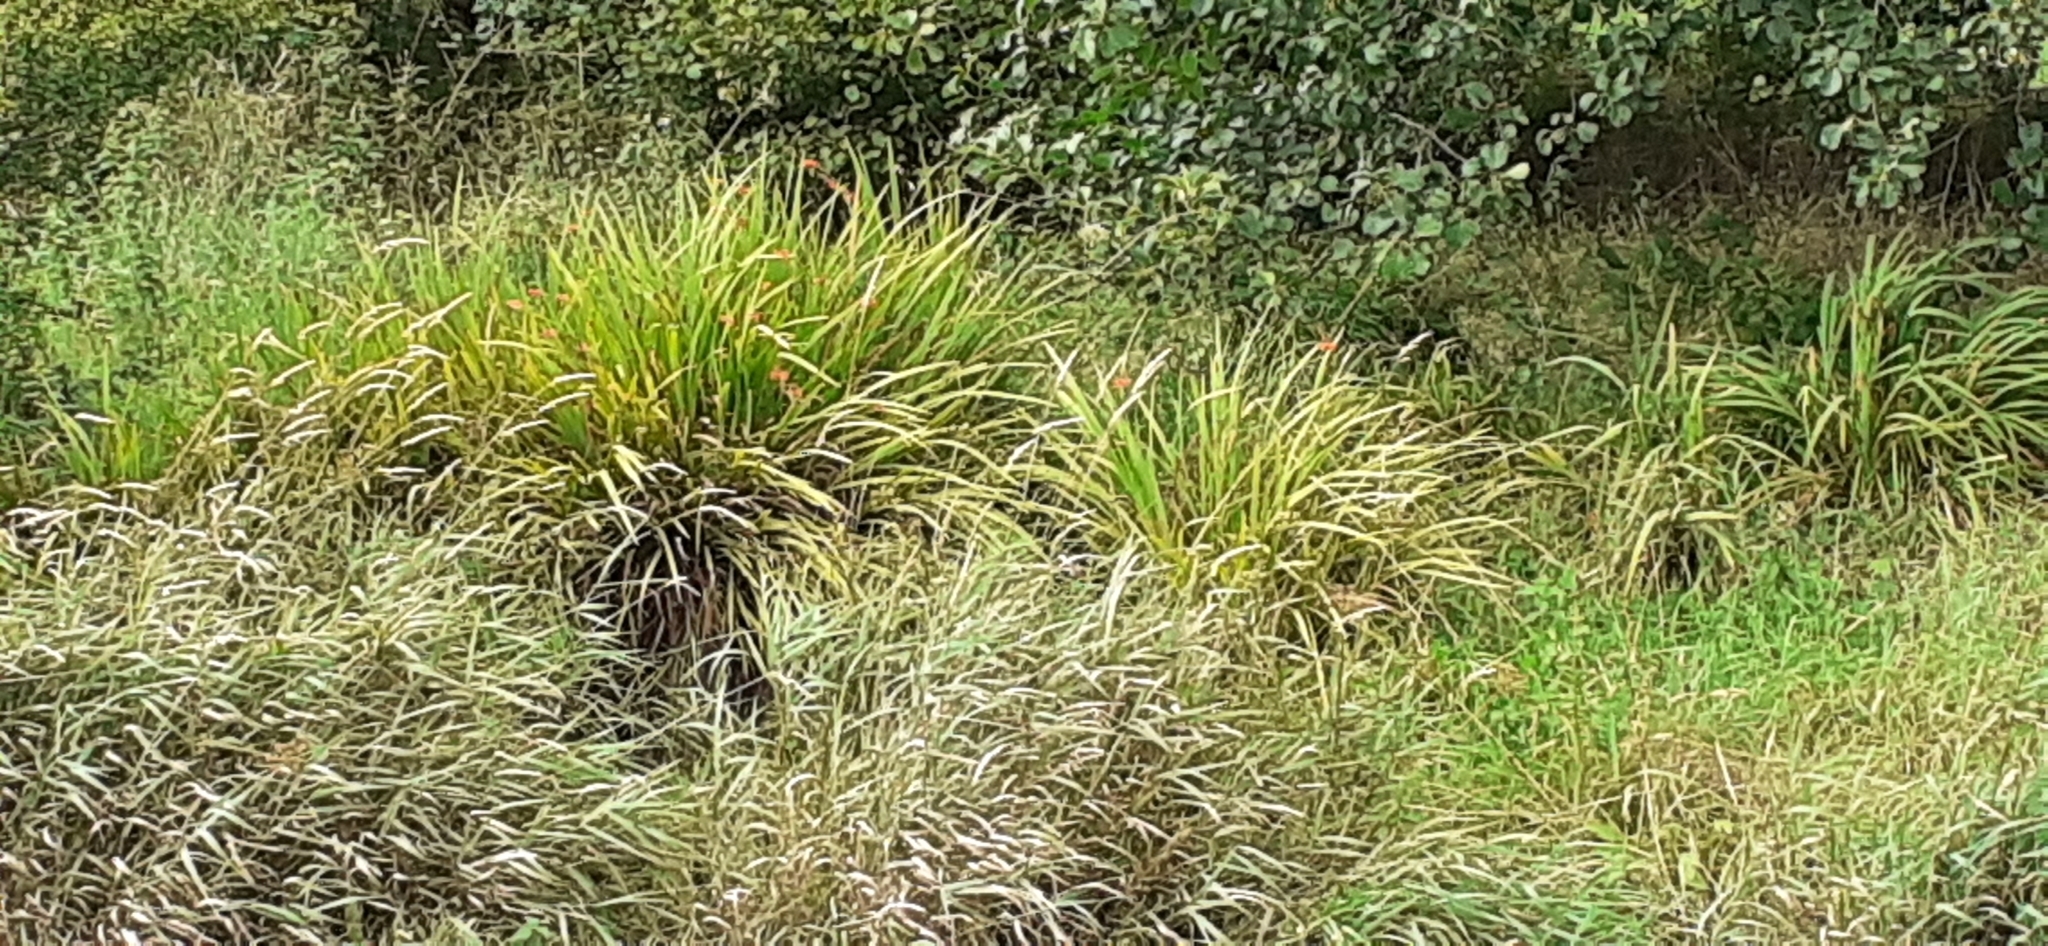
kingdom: Plantae
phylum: Tracheophyta
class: Liliopsida
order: Asparagales
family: Iridaceae
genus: Crocosmia
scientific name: Crocosmia crocosmiiflora
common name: Montbretia
